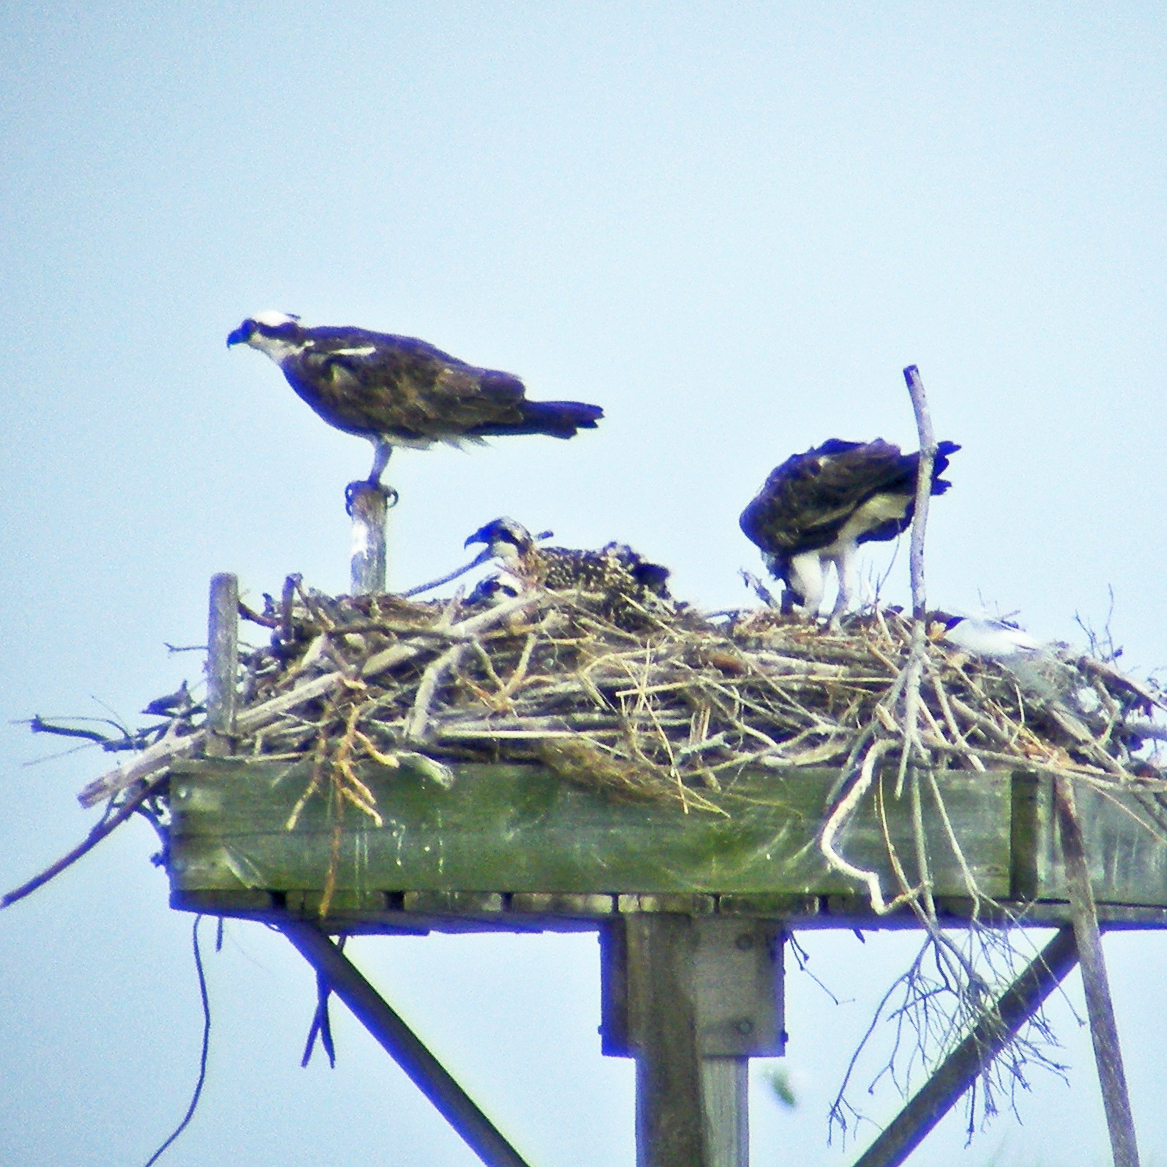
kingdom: Animalia
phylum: Chordata
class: Aves
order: Accipitriformes
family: Pandionidae
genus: Pandion
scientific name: Pandion haliaetus
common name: Osprey
